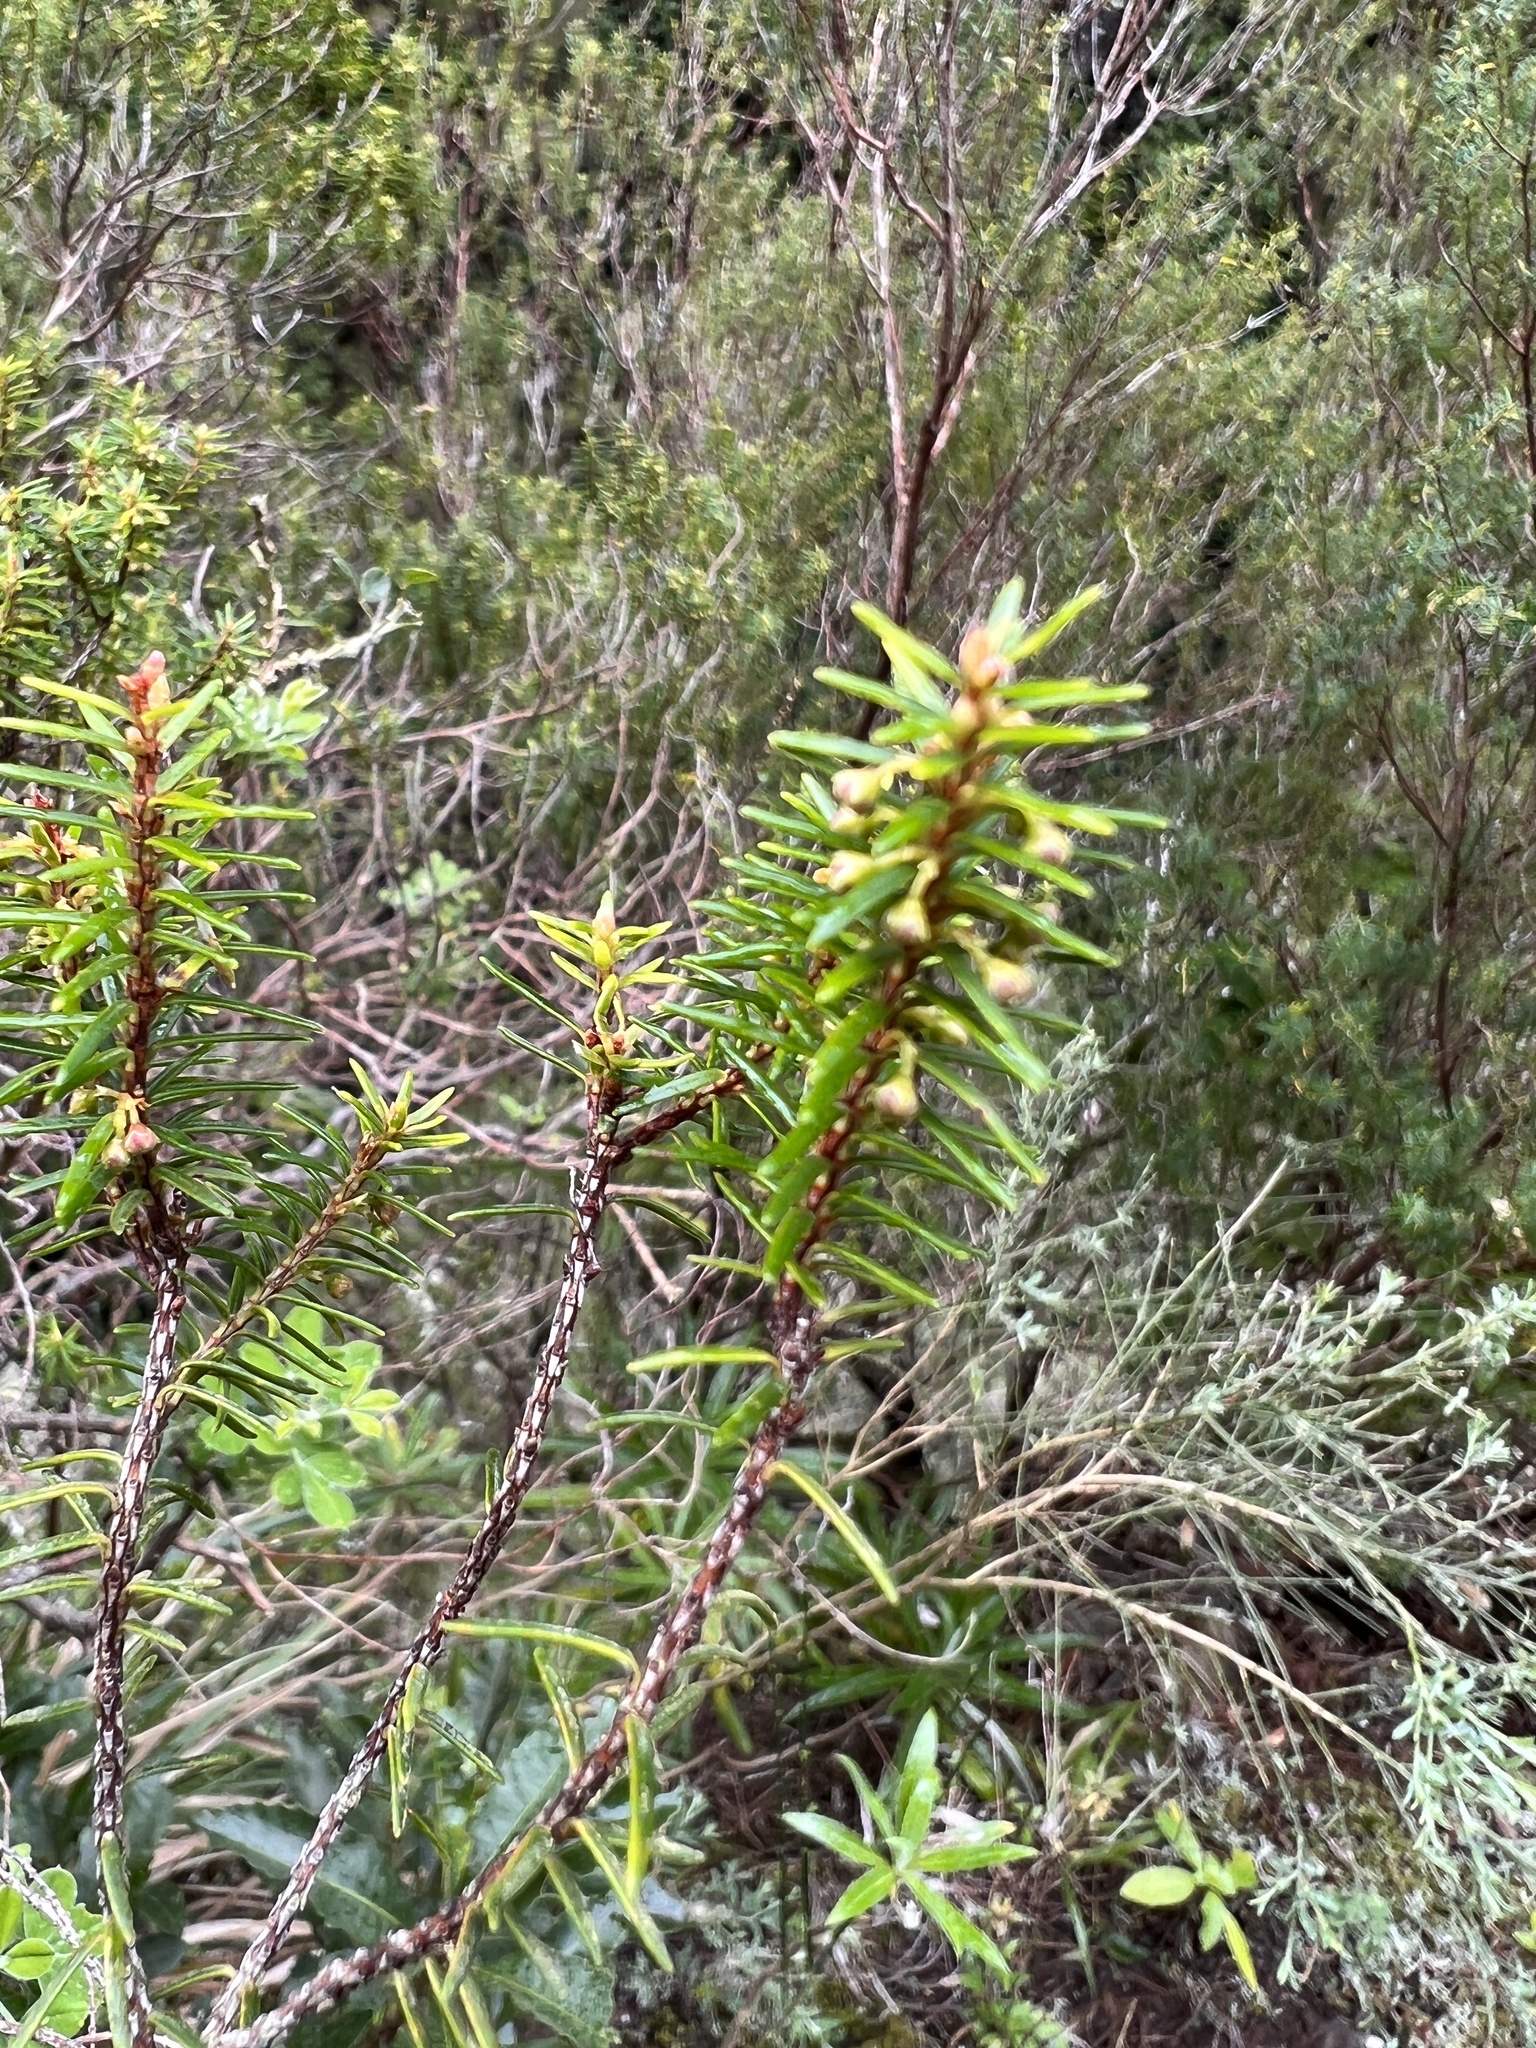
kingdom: Plantae
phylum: Tracheophyta
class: Magnoliopsida
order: Ericales
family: Ericaceae
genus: Erica
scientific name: Erica platycodon
